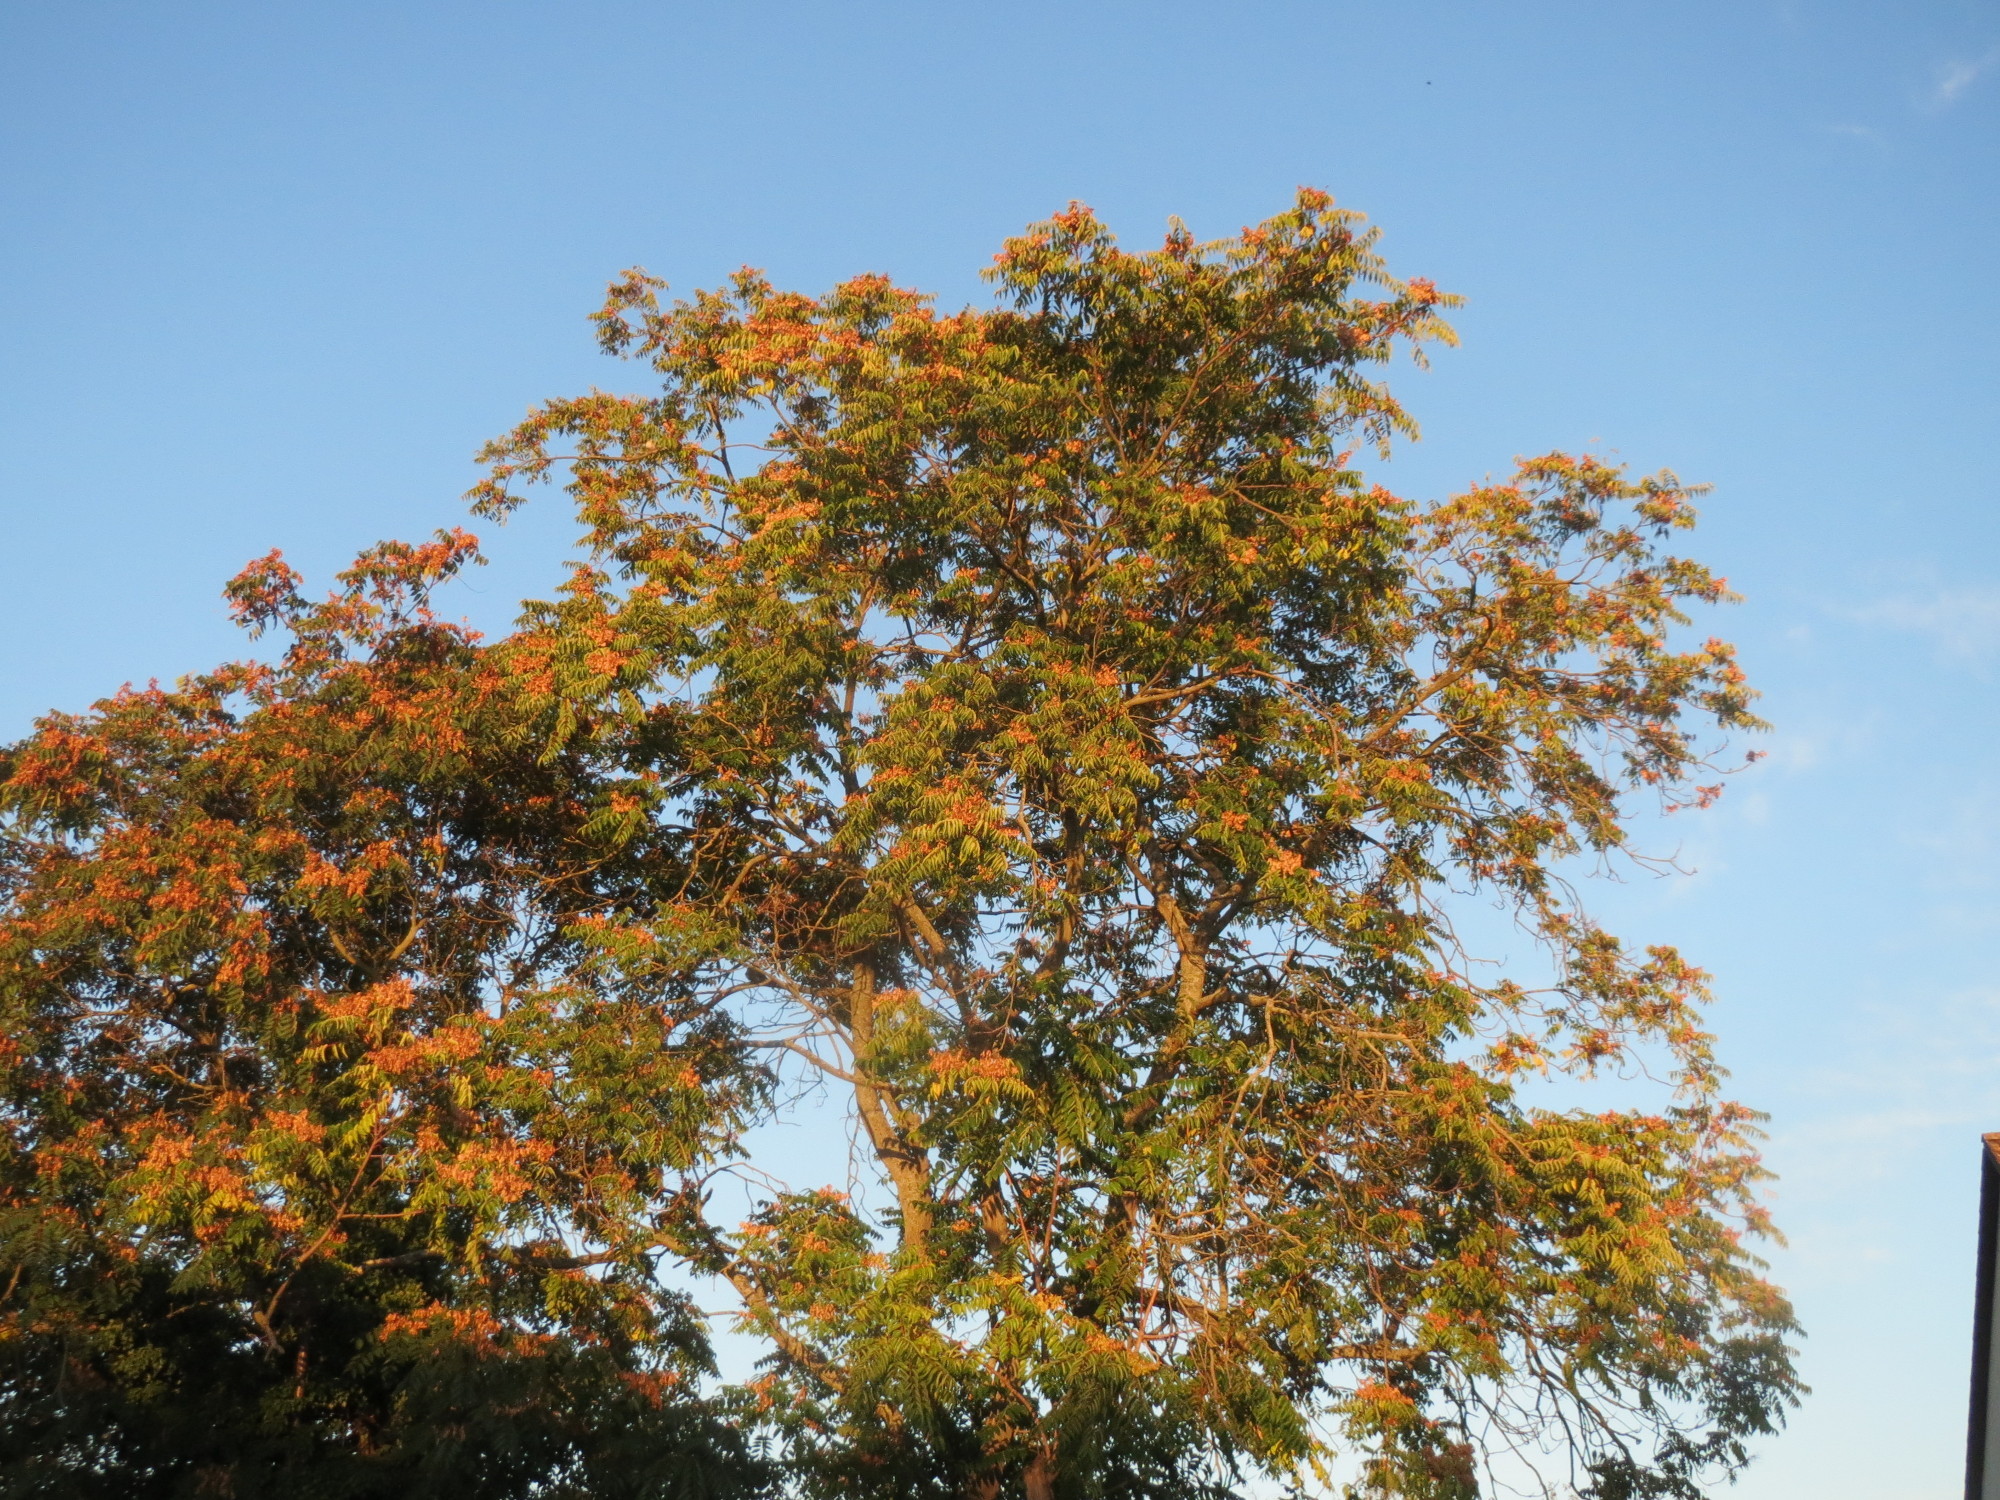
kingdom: Plantae
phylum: Tracheophyta
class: Magnoliopsida
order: Sapindales
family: Simaroubaceae
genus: Ailanthus
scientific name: Ailanthus altissima
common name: Tree-of-heaven
